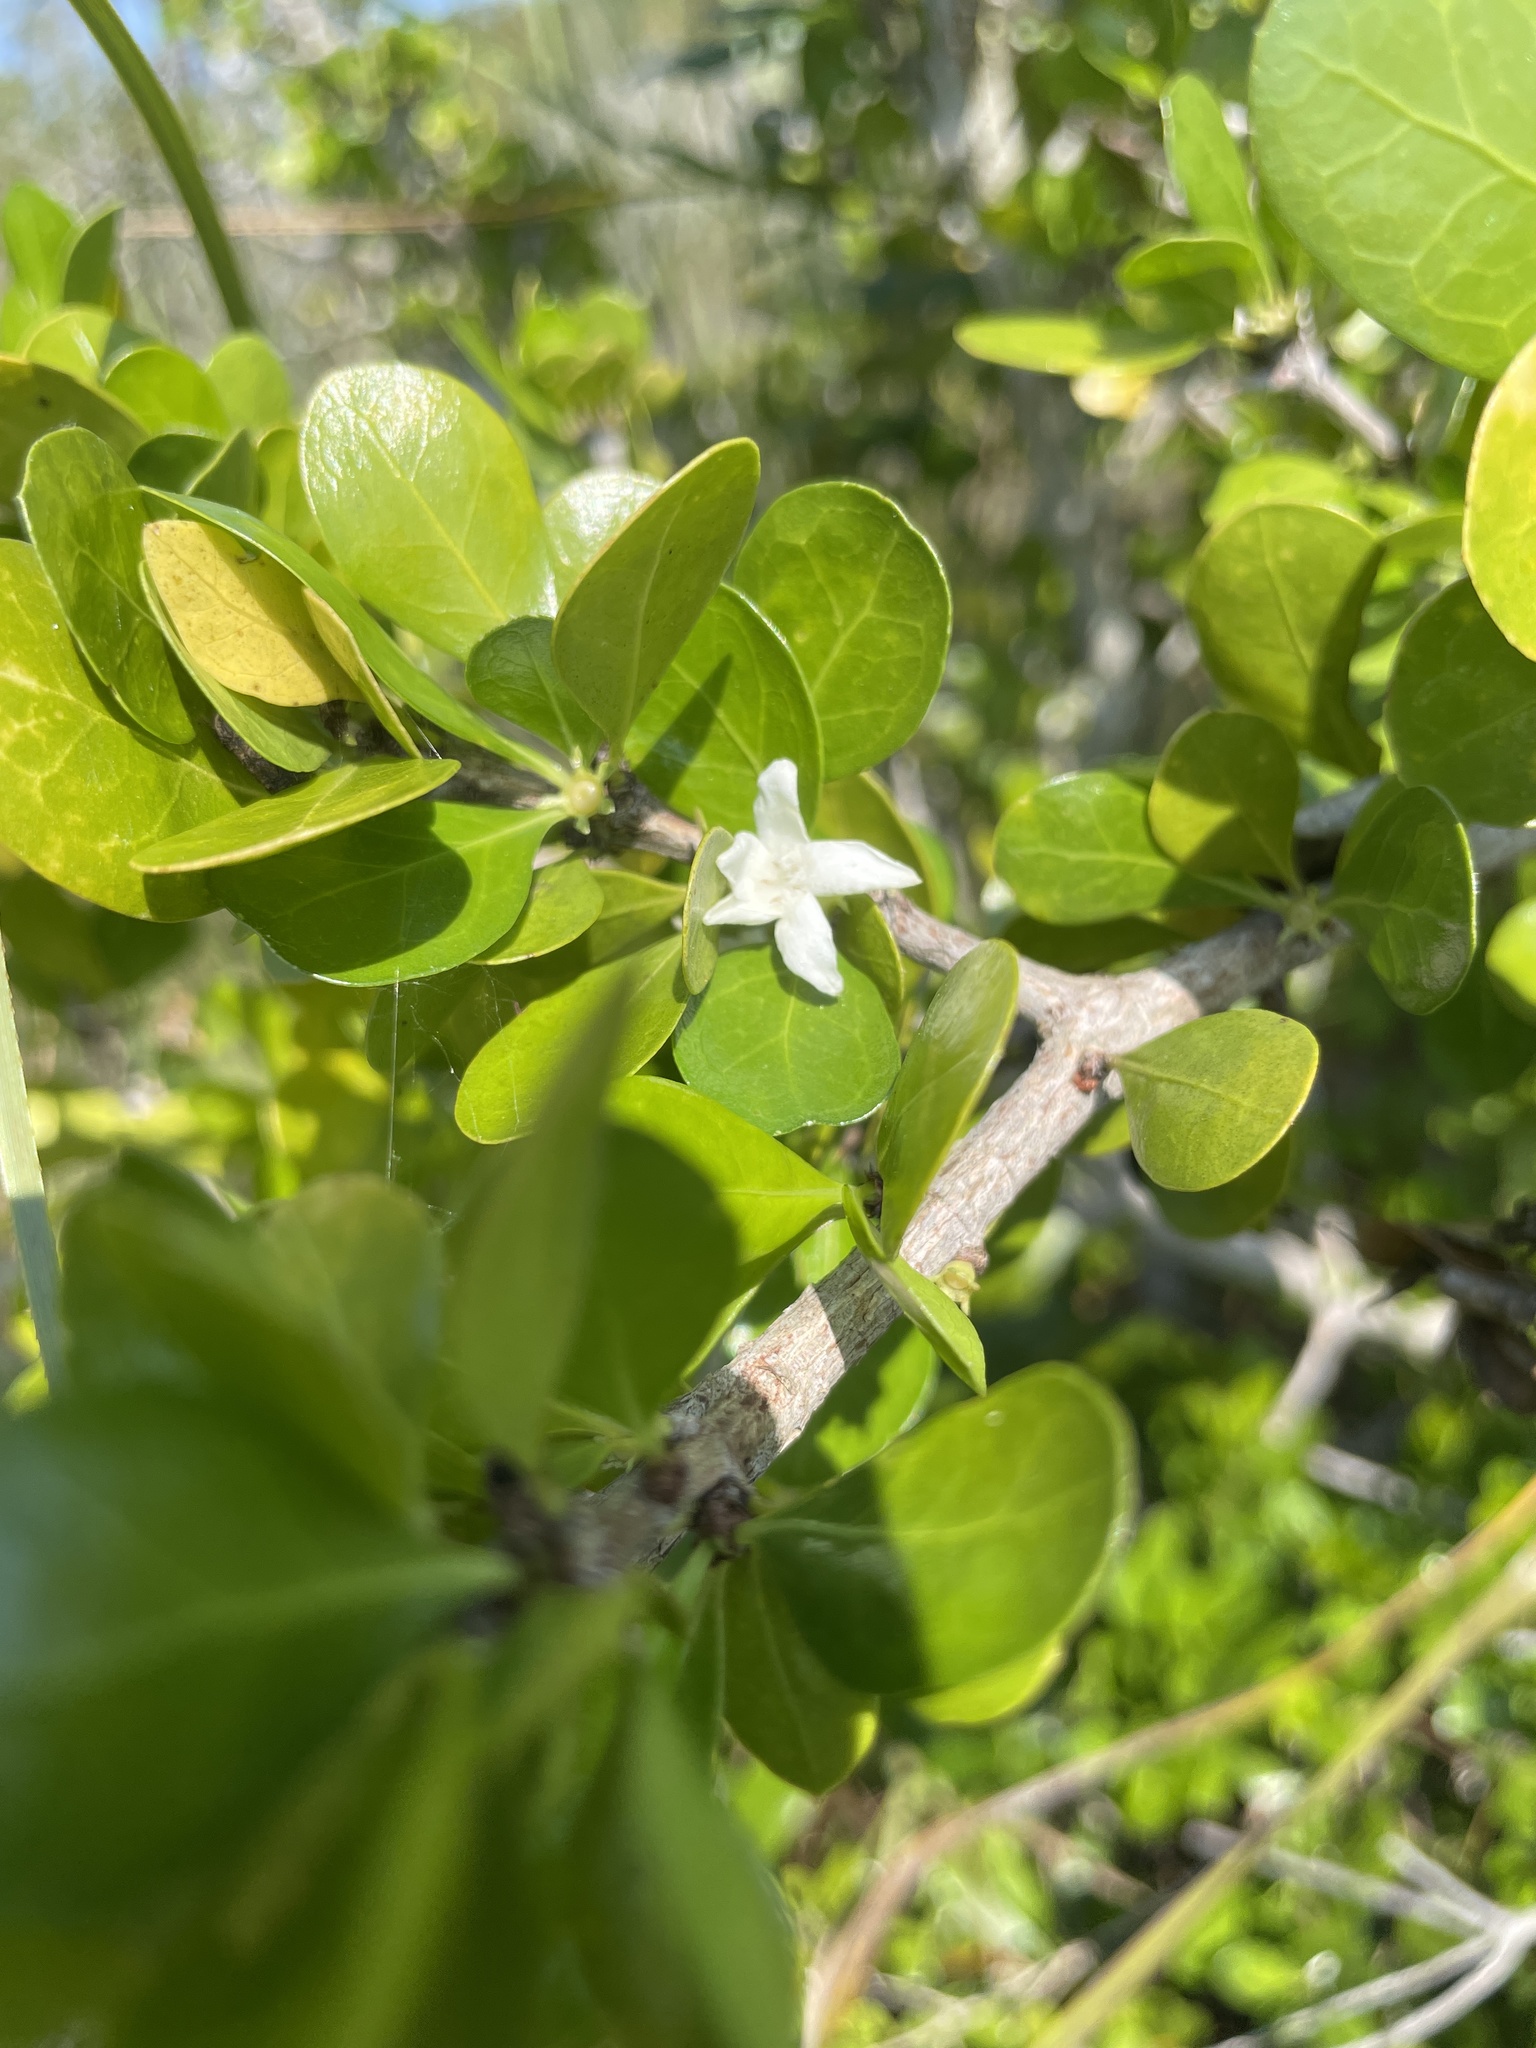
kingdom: Plantae
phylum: Tracheophyta
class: Magnoliopsida
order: Gentianales
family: Rubiaceae
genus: Randia
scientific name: Randia aculeata
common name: Inkberry
